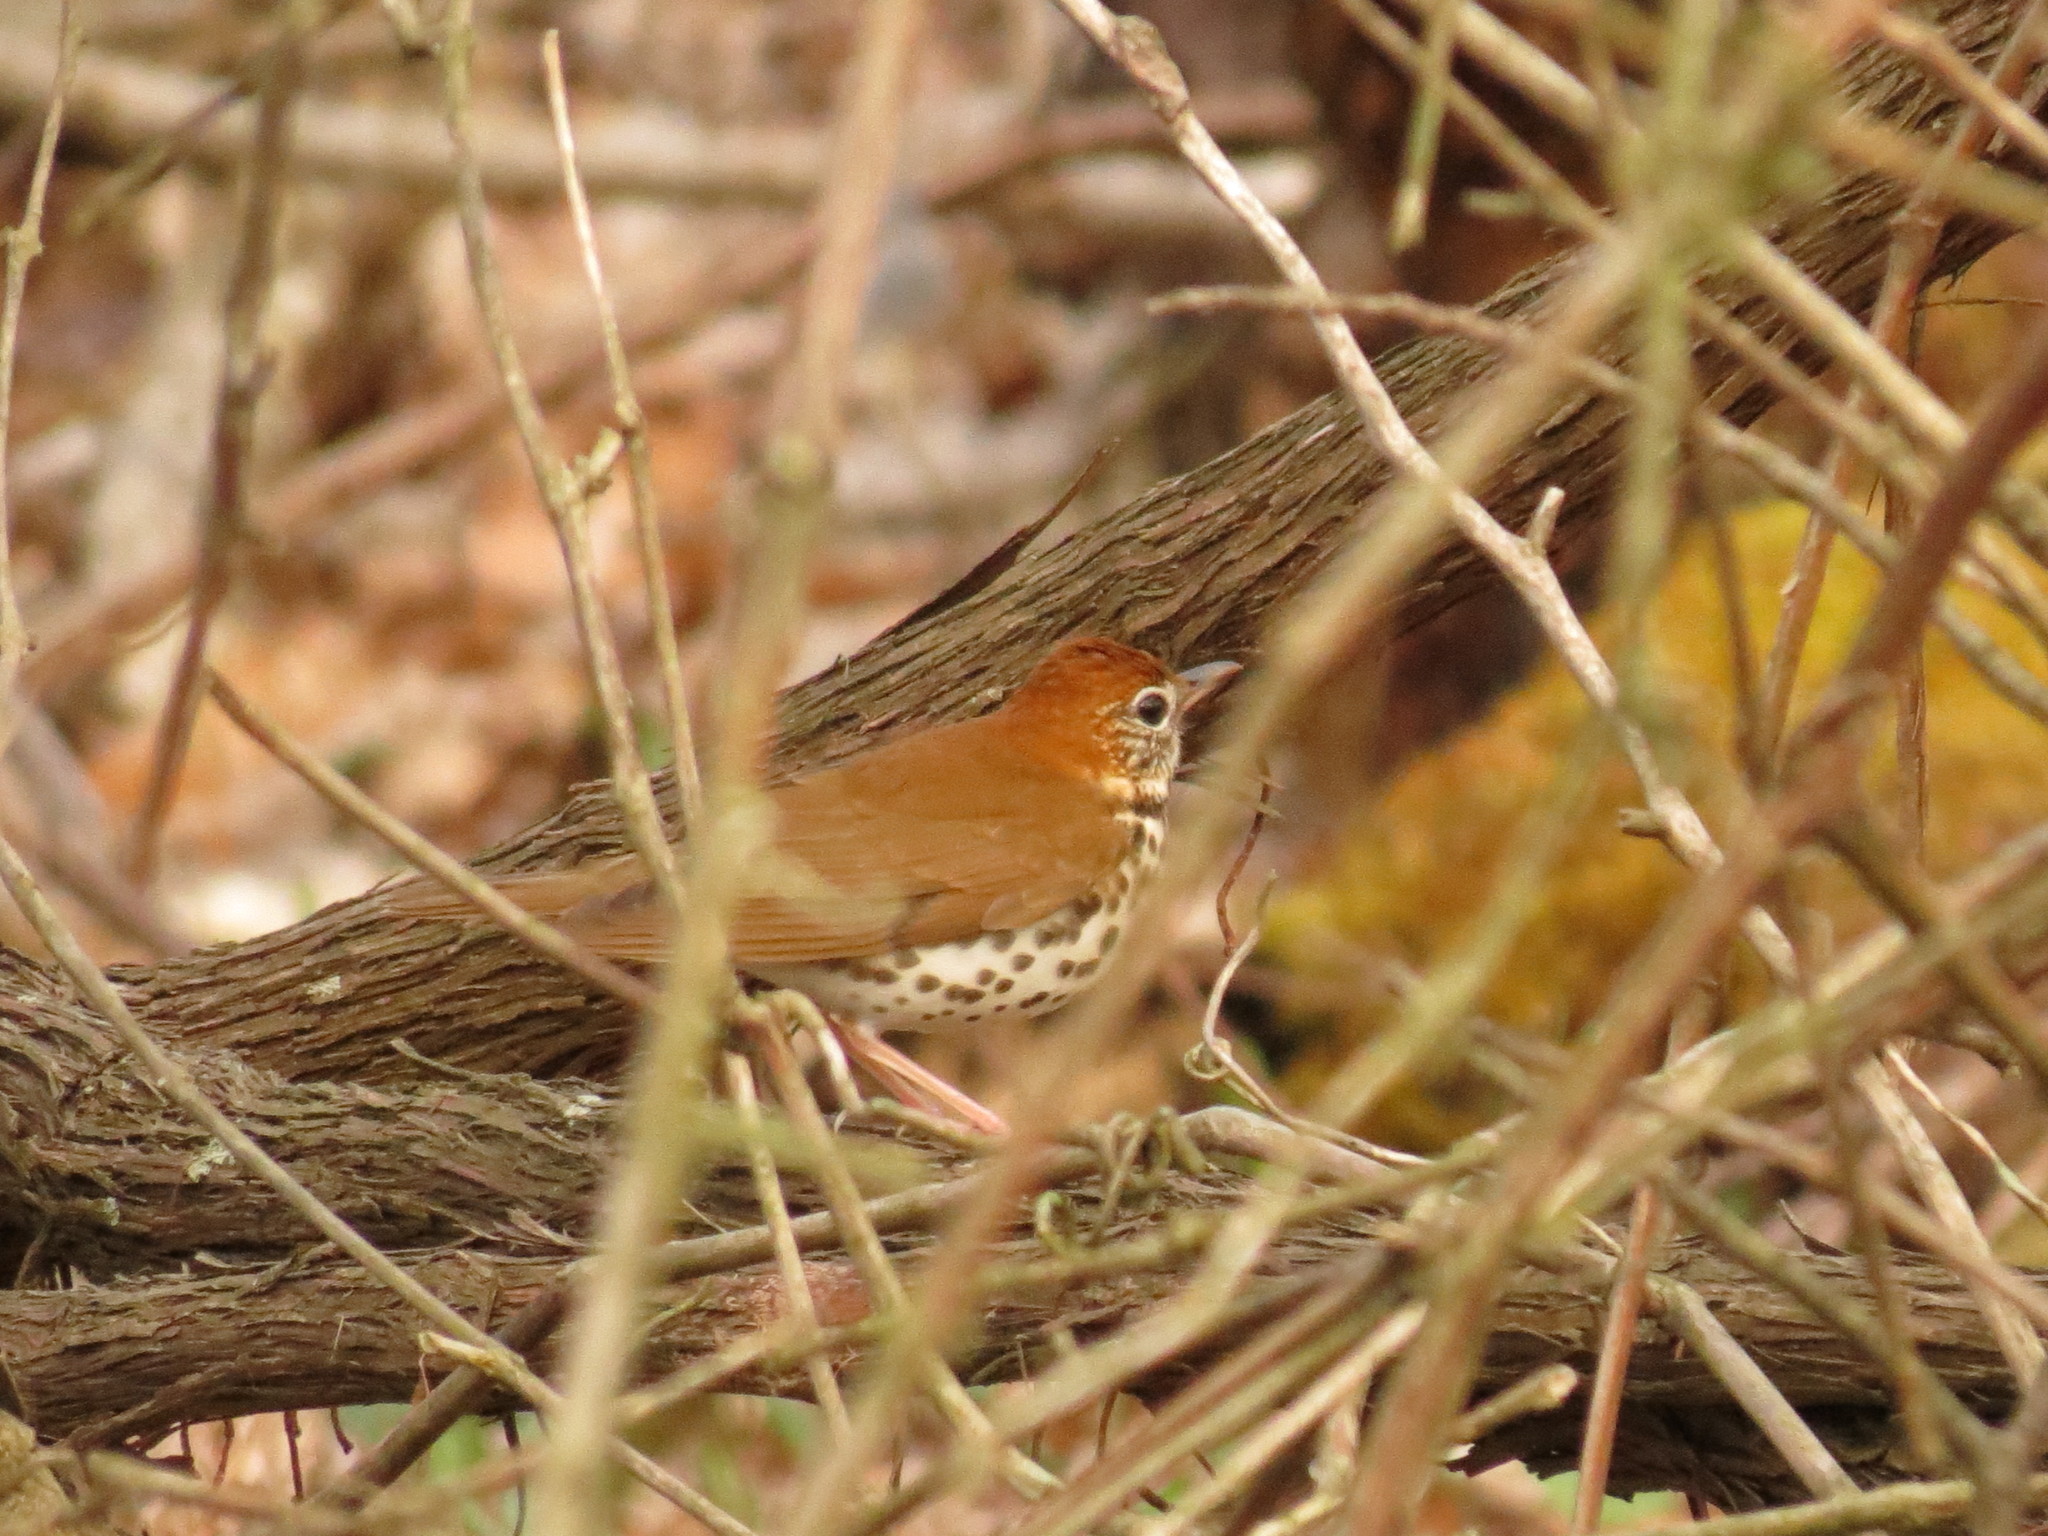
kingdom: Animalia
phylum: Chordata
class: Aves
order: Passeriformes
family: Turdidae
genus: Hylocichla
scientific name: Hylocichla mustelina
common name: Wood thrush
